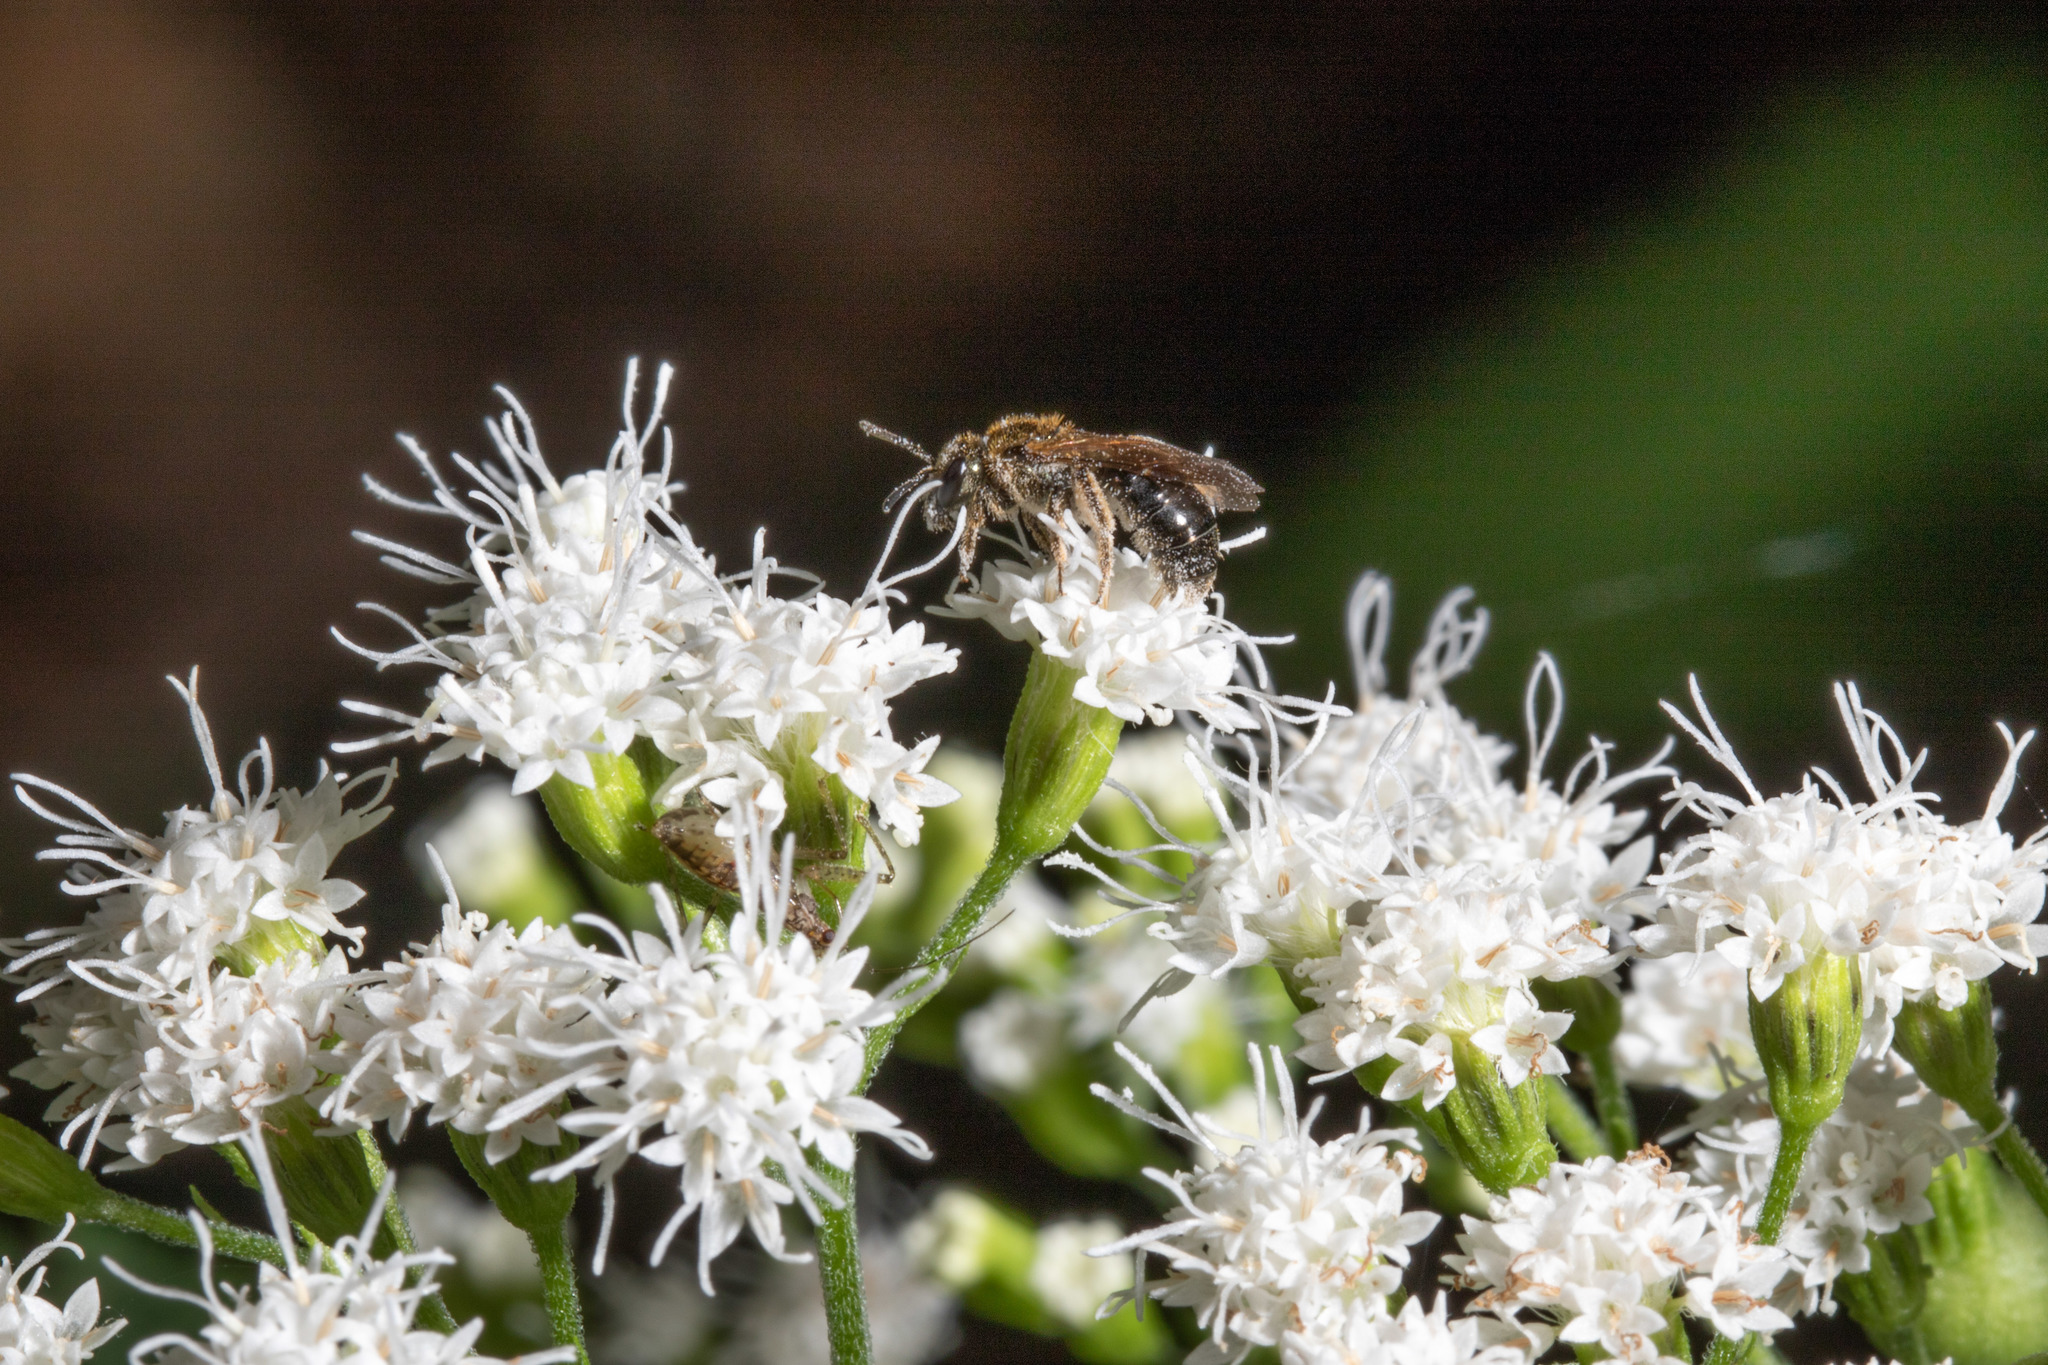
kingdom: Animalia
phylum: Arthropoda
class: Insecta
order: Hymenoptera
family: Halictidae
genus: Lasioglossum
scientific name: Lasioglossum nigroviride
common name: Black-and-green dialictus sweat bee
